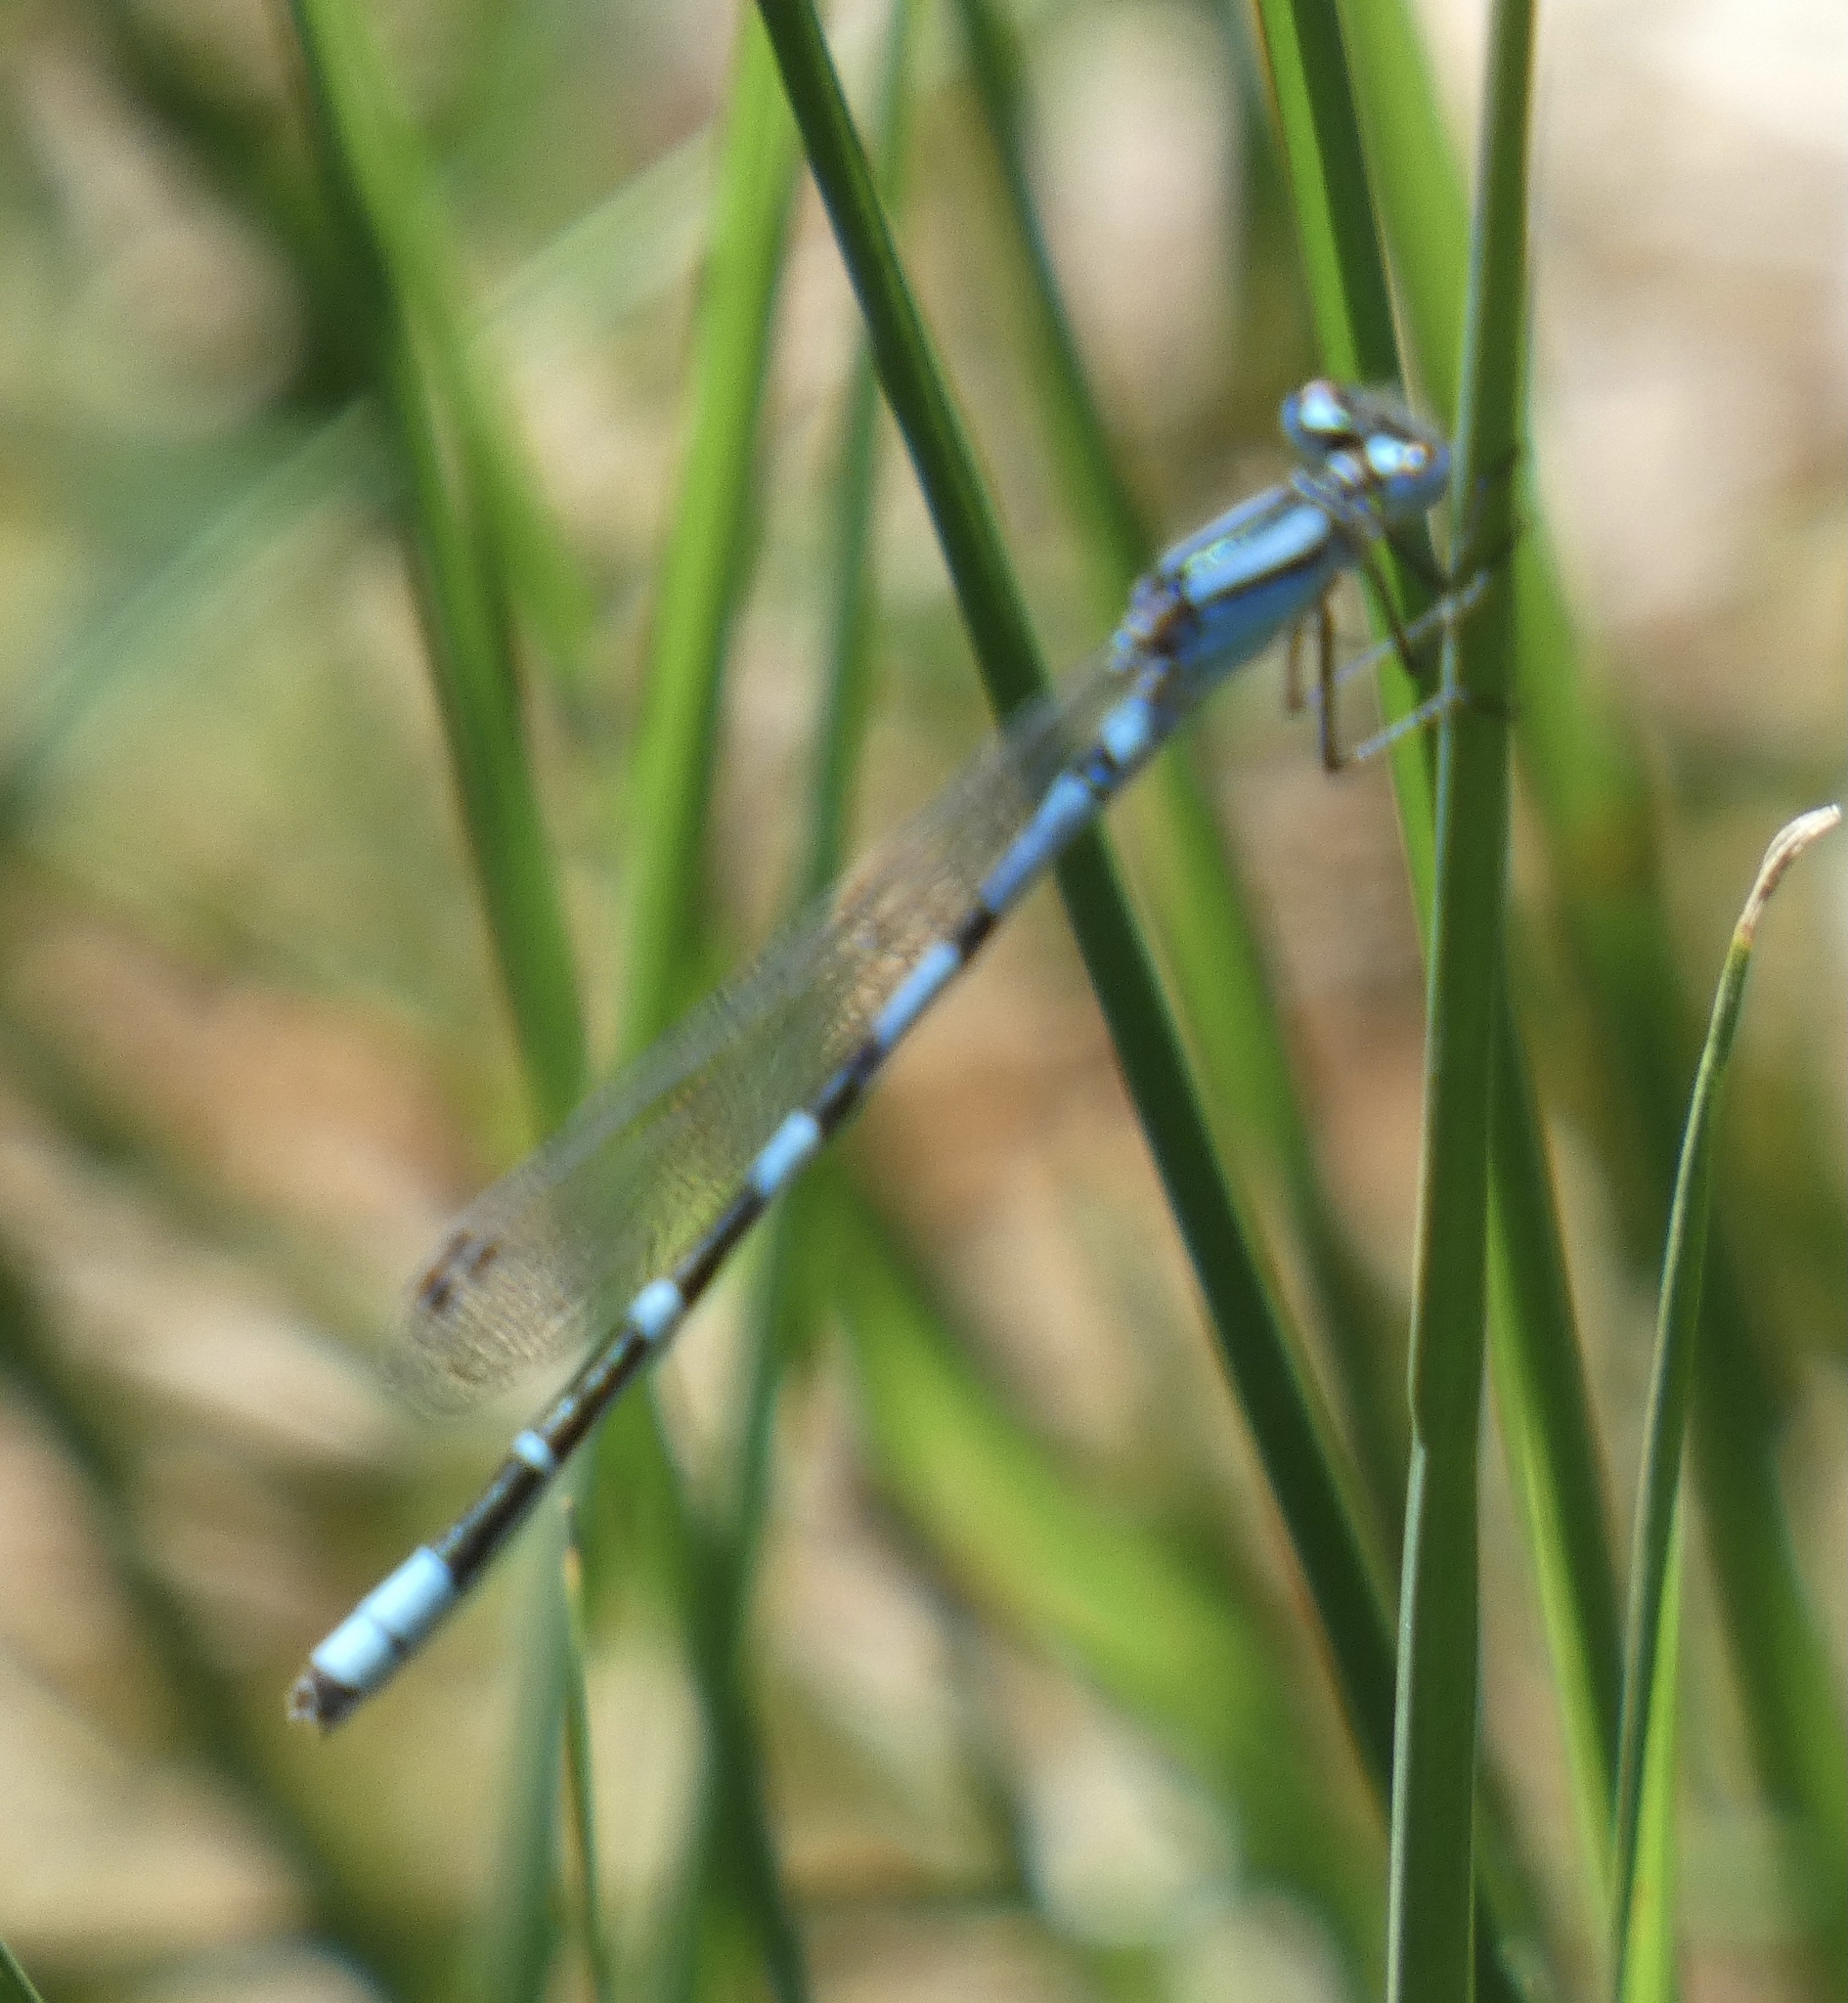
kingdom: Animalia
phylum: Arthropoda
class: Insecta
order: Odonata
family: Coenagrionidae
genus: Enallagma
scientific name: Enallagma cyathigerum
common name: Common blue damselfly
